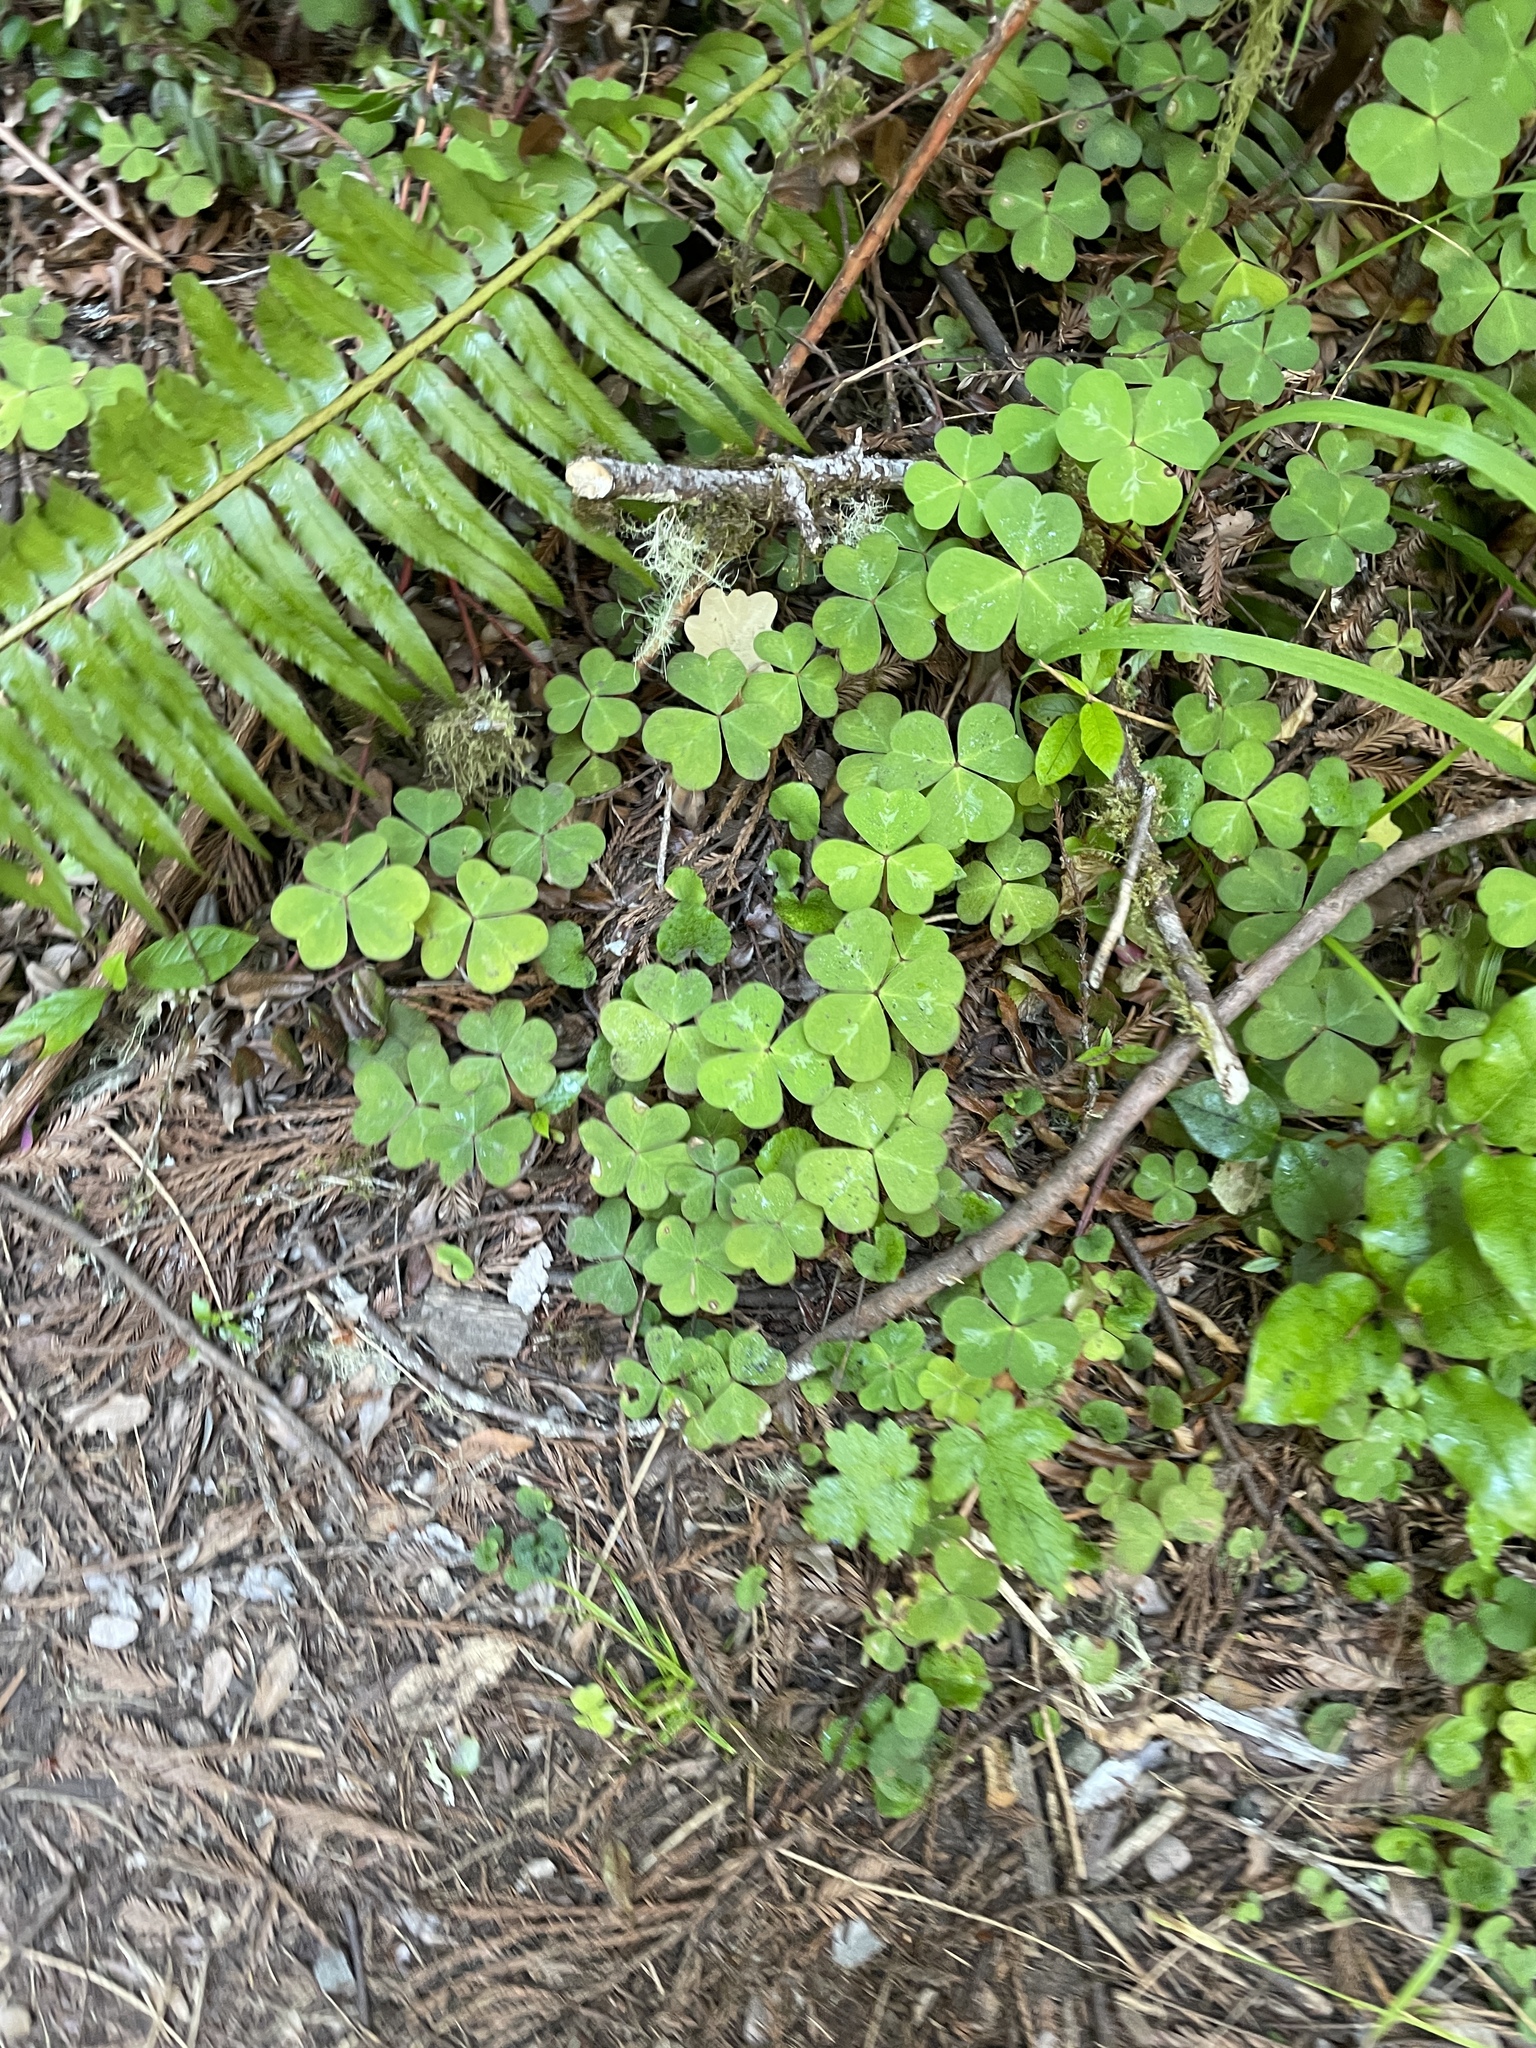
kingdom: Plantae
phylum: Tracheophyta
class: Magnoliopsida
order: Oxalidales
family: Oxalidaceae
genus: Oxalis
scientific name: Oxalis oregana
